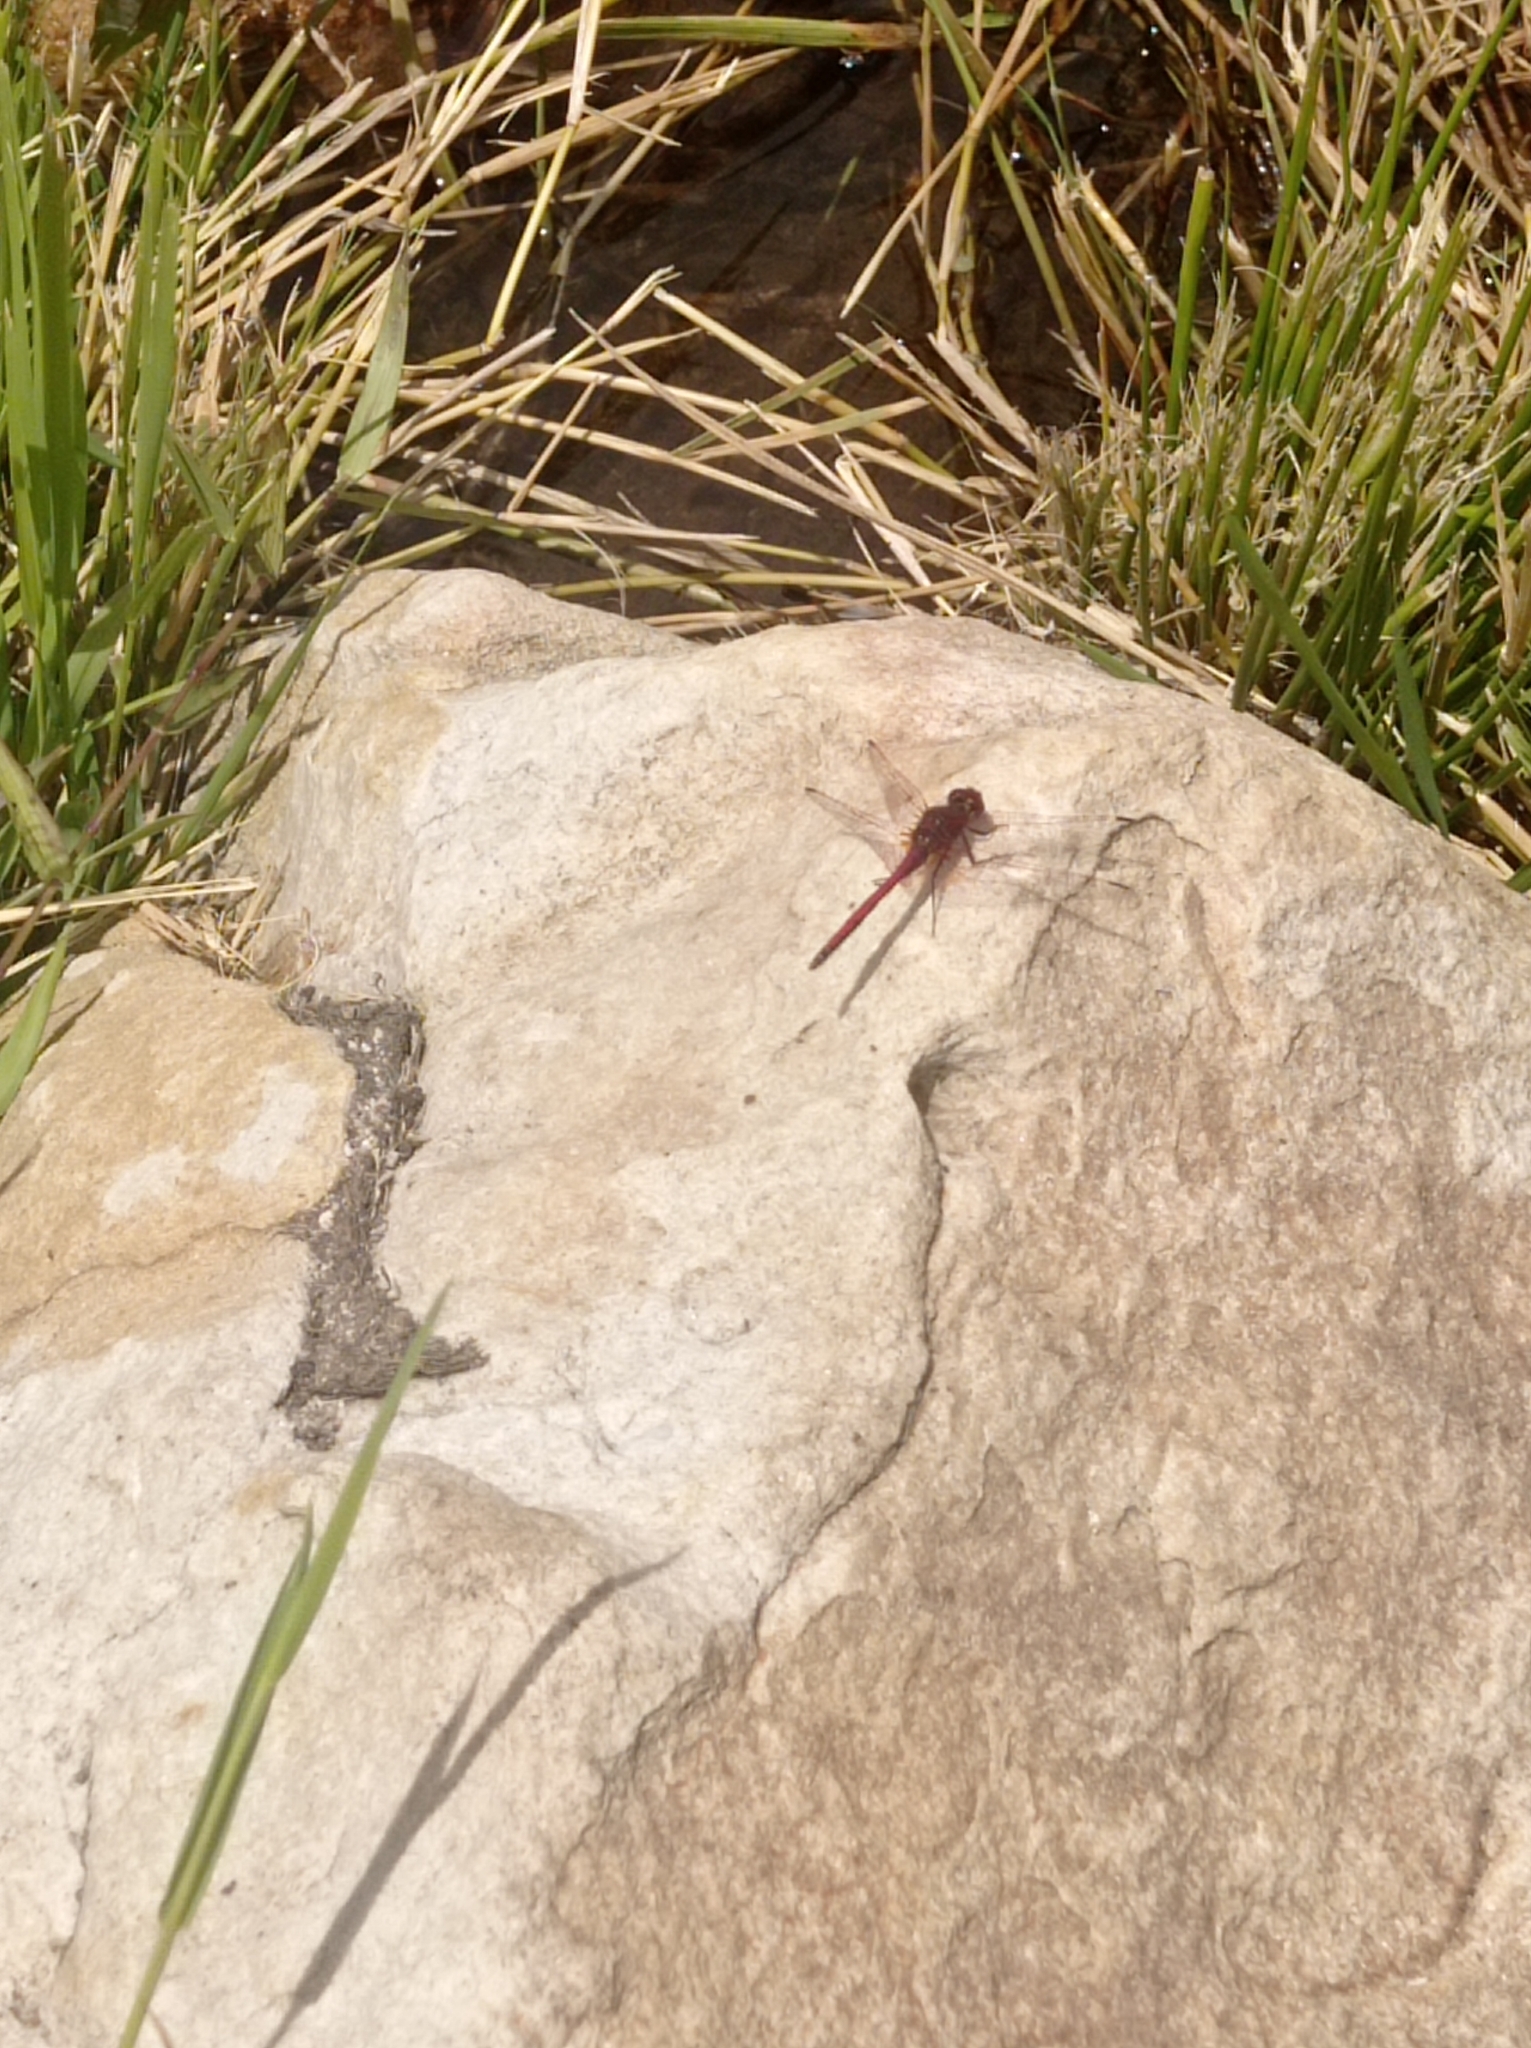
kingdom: Animalia
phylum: Arthropoda
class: Insecta
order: Odonata
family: Libellulidae
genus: Trithemis
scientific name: Trithemis arteriosa
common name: Red-veined dropwing
